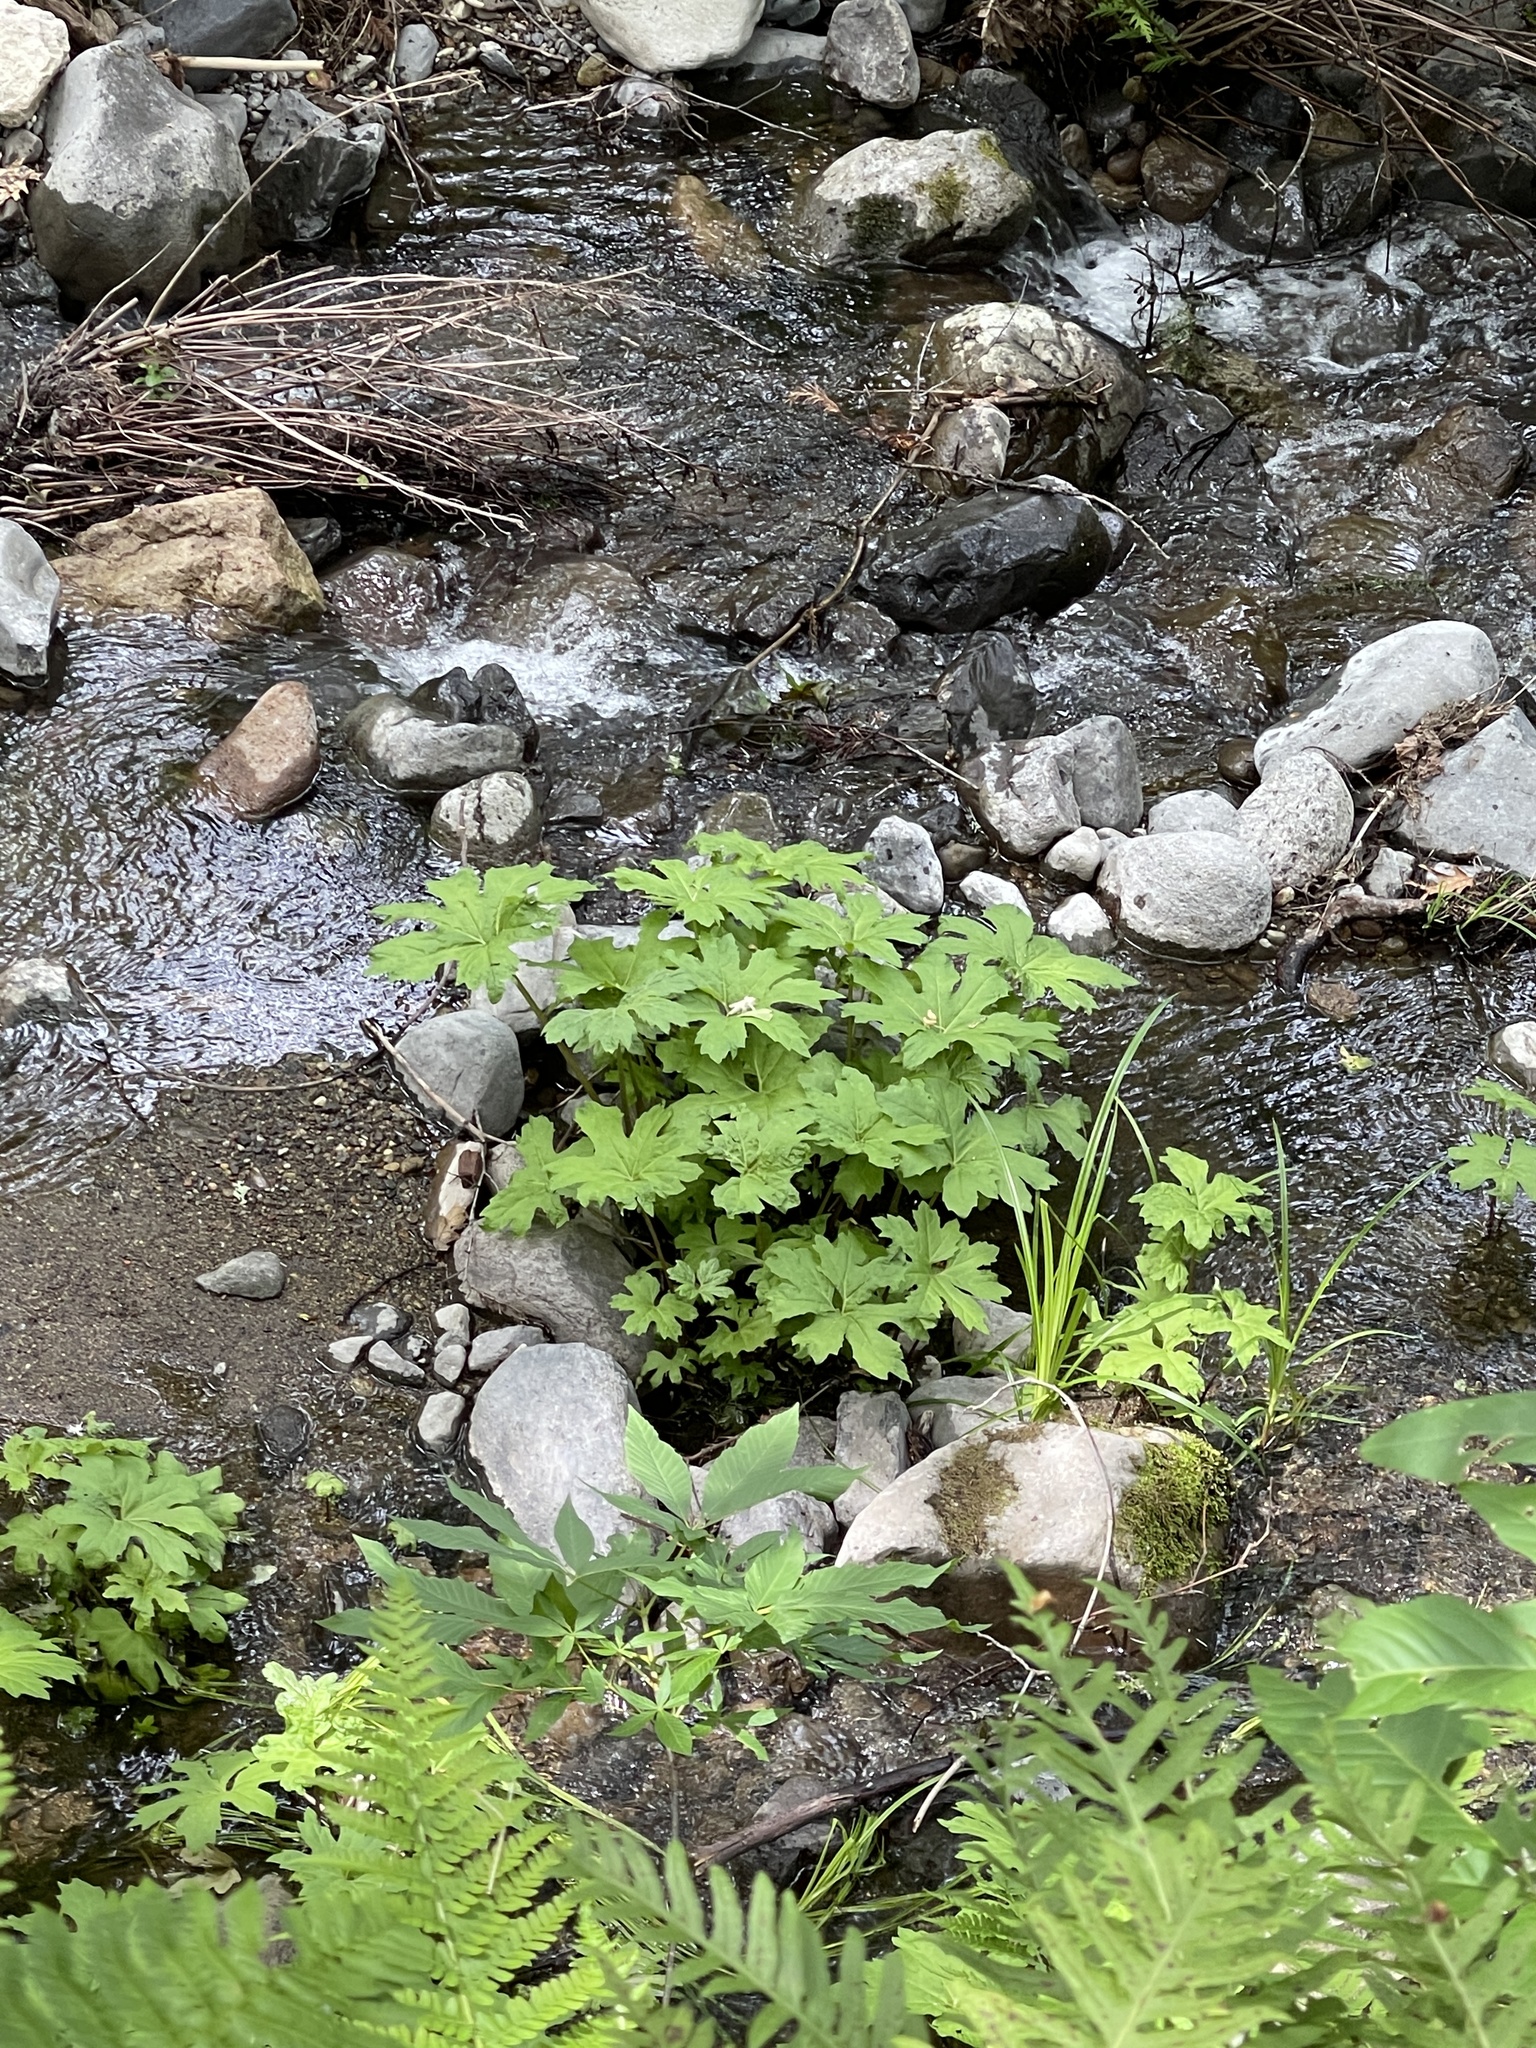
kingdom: Plantae
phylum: Tracheophyta
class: Magnoliopsida
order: Asterales
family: Asteraceae
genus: Petasites
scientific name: Petasites frigidus
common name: Arctic butterbur
